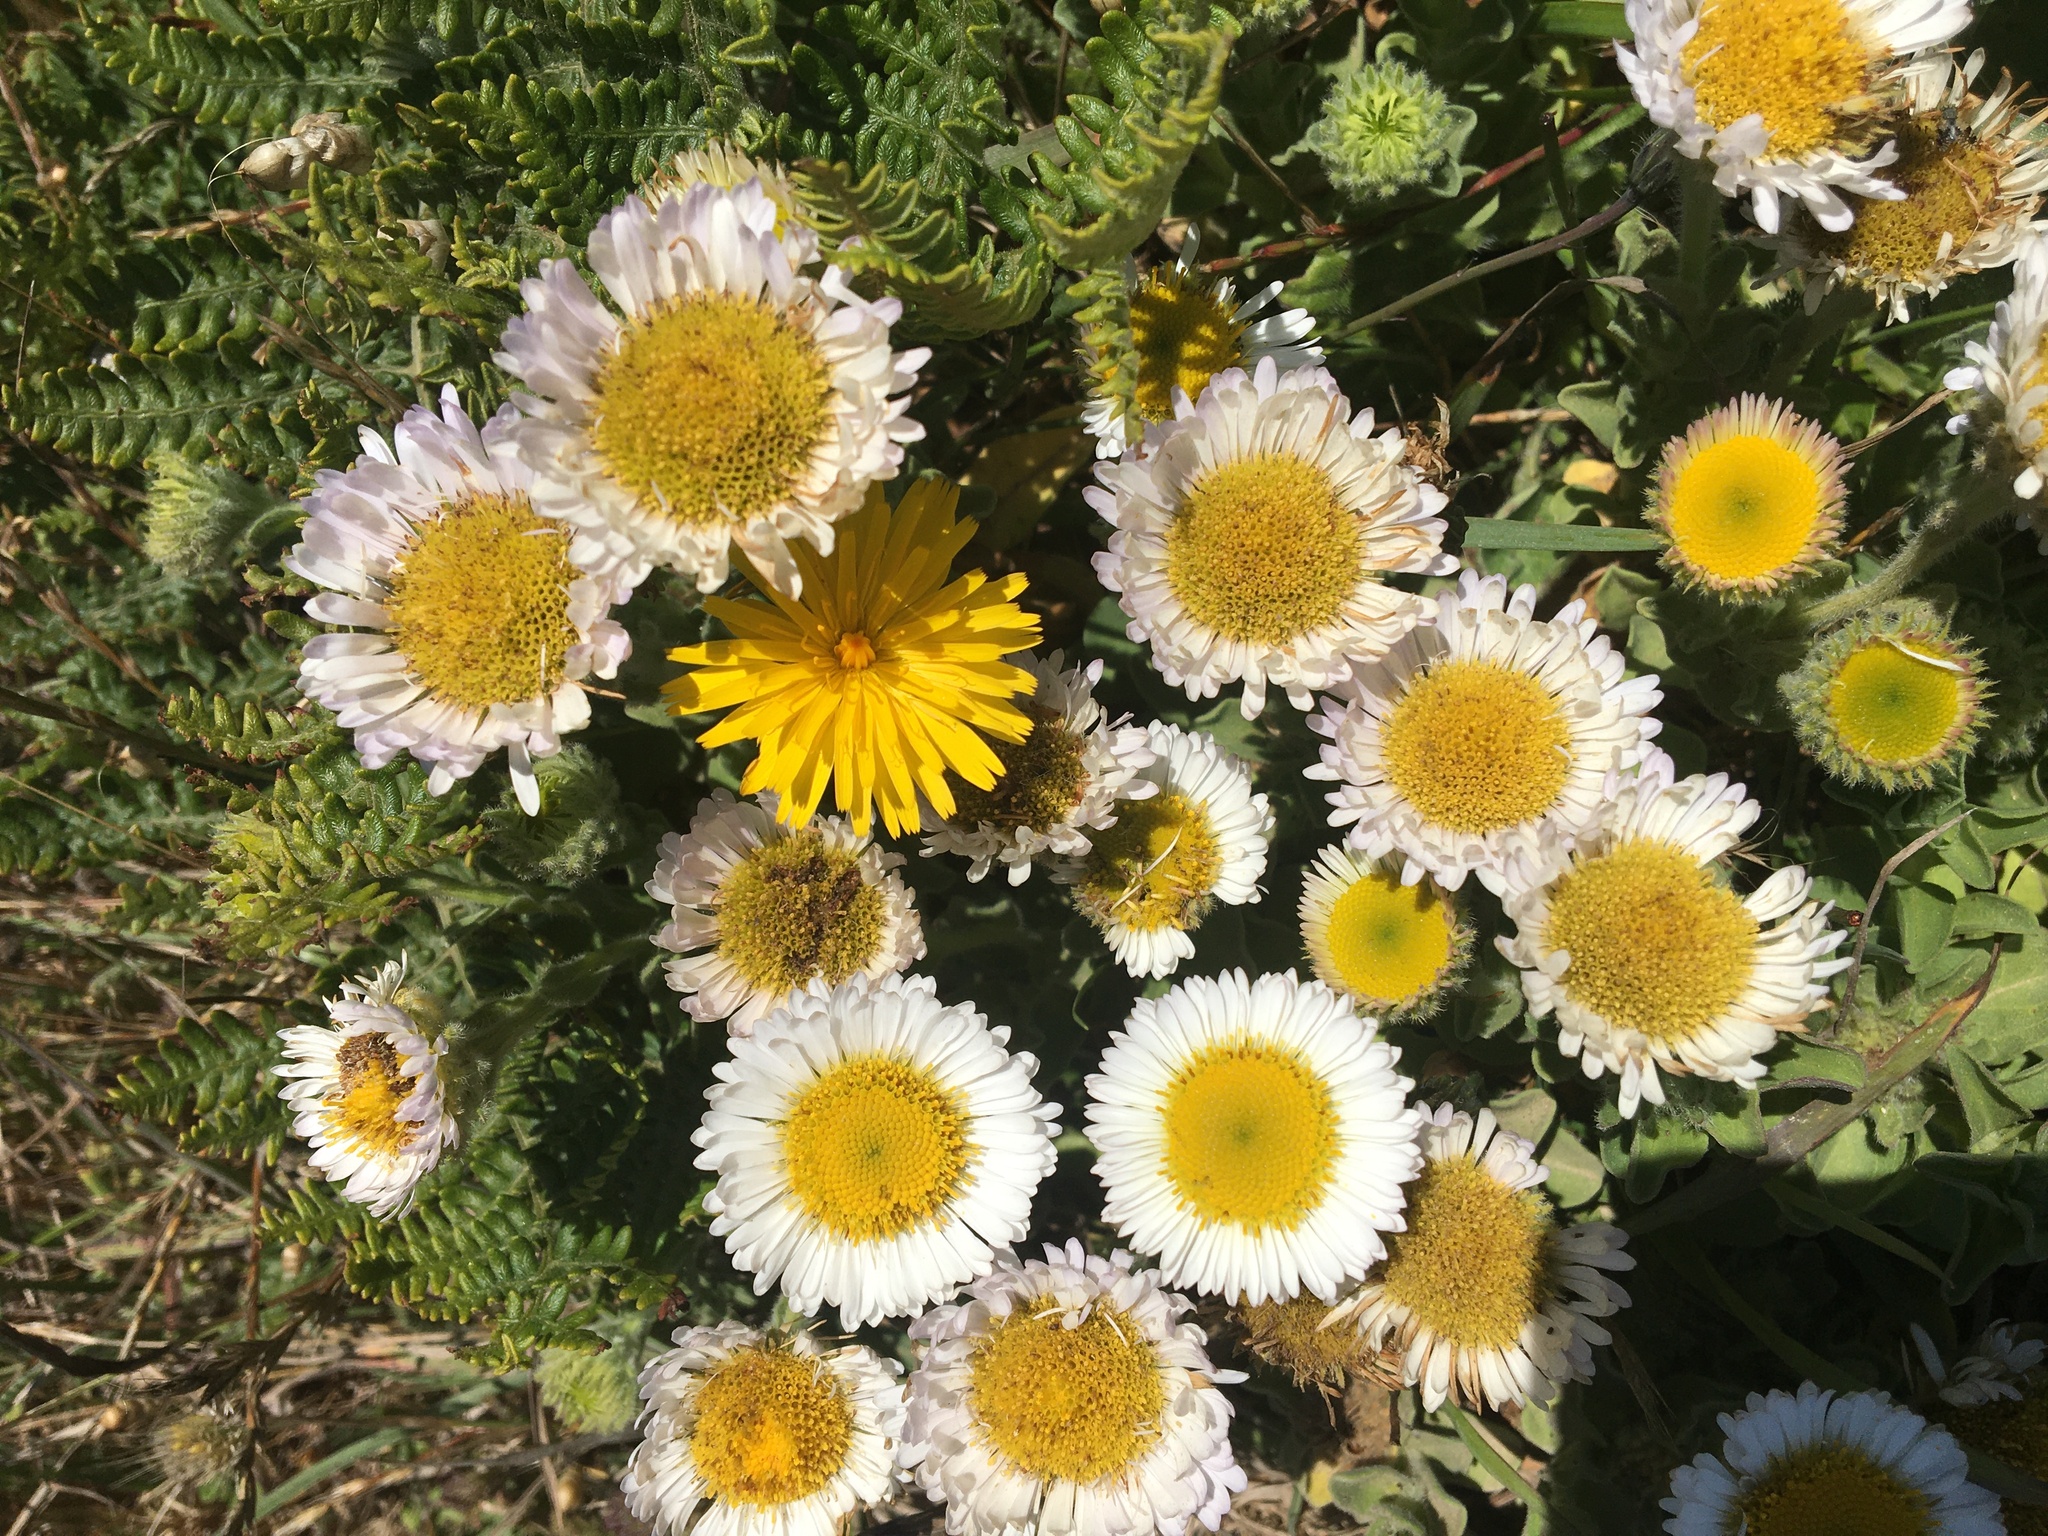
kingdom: Plantae
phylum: Tracheophyta
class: Magnoliopsida
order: Asterales
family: Asteraceae
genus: Erigeron
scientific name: Erigeron glaucus
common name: Seaside daisy
